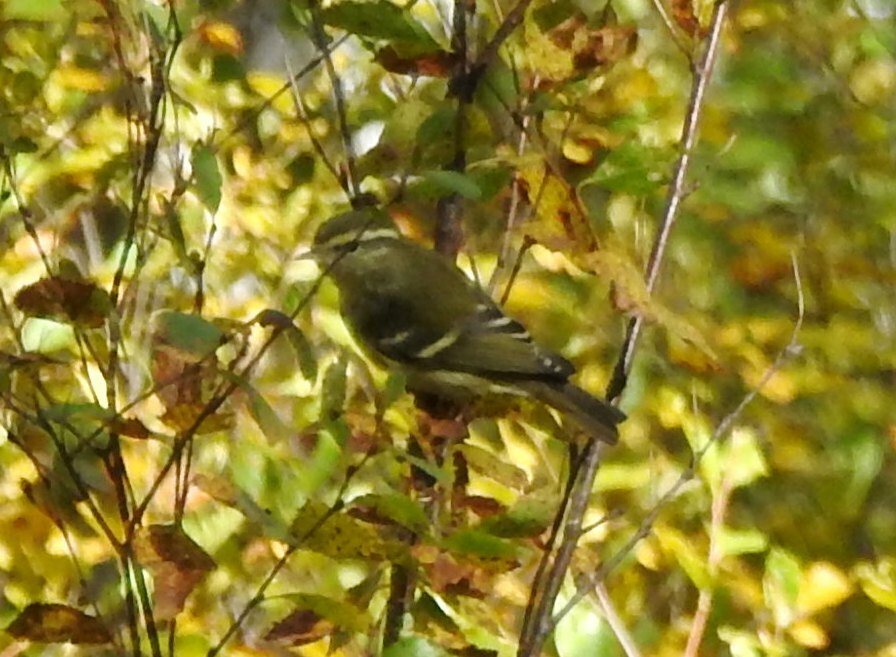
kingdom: Animalia
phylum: Chordata
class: Aves
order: Passeriformes
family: Phylloscopidae
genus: Phylloscopus
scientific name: Phylloscopus inornatus
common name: Yellow-browed warbler
